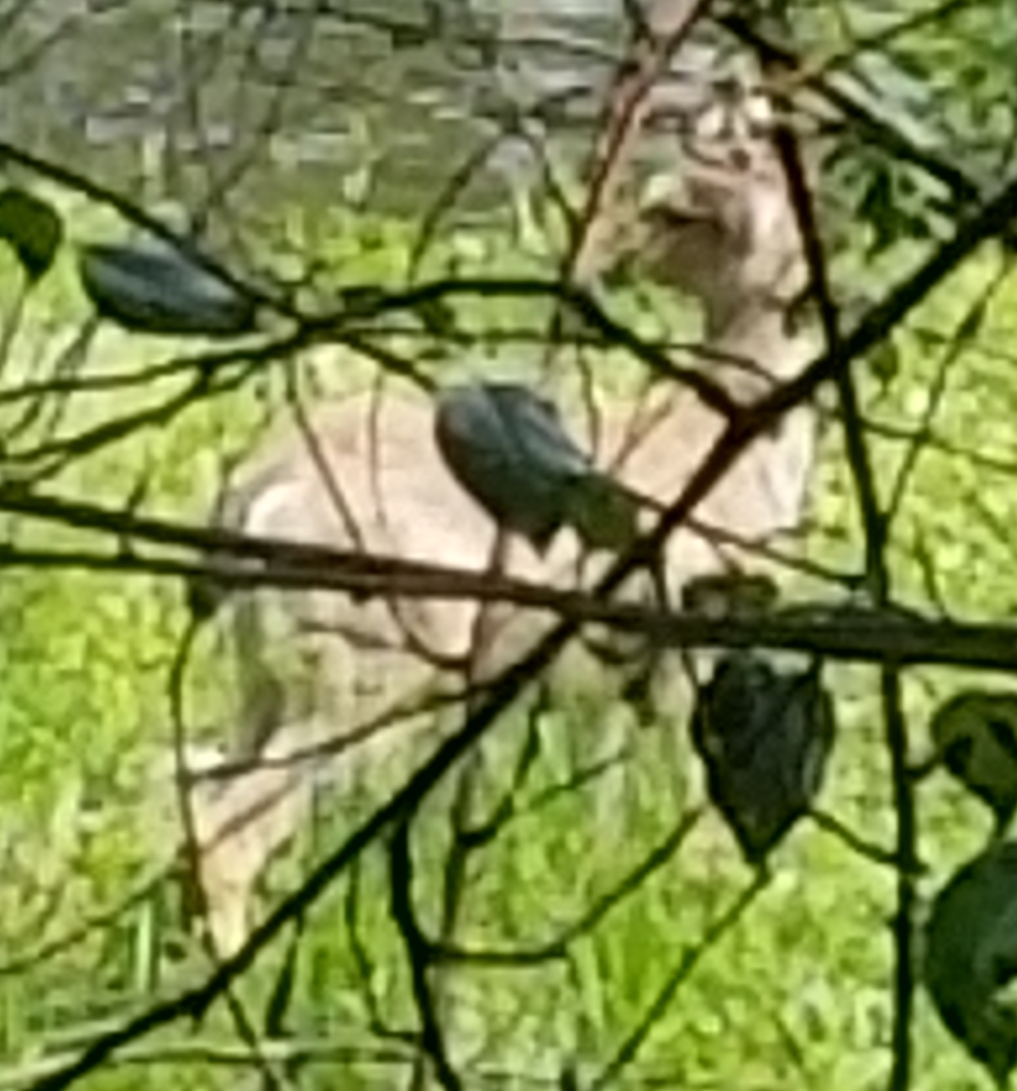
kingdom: Animalia
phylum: Chordata
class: Mammalia
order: Artiodactyla
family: Cervidae
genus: Odocoileus
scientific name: Odocoileus hemionus
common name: Mule deer
